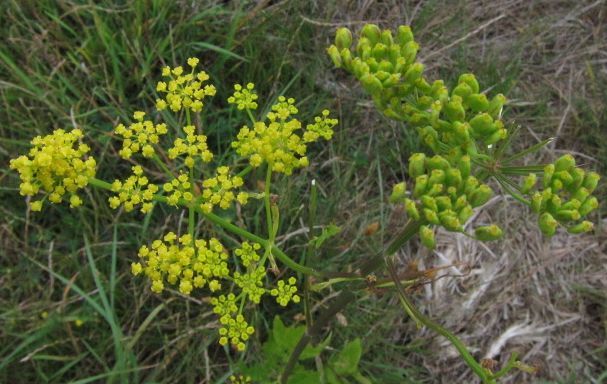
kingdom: Plantae
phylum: Tracheophyta
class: Magnoliopsida
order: Apiales
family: Apiaceae
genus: Pastinaca
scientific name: Pastinaca sativa
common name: Wild parsnip
